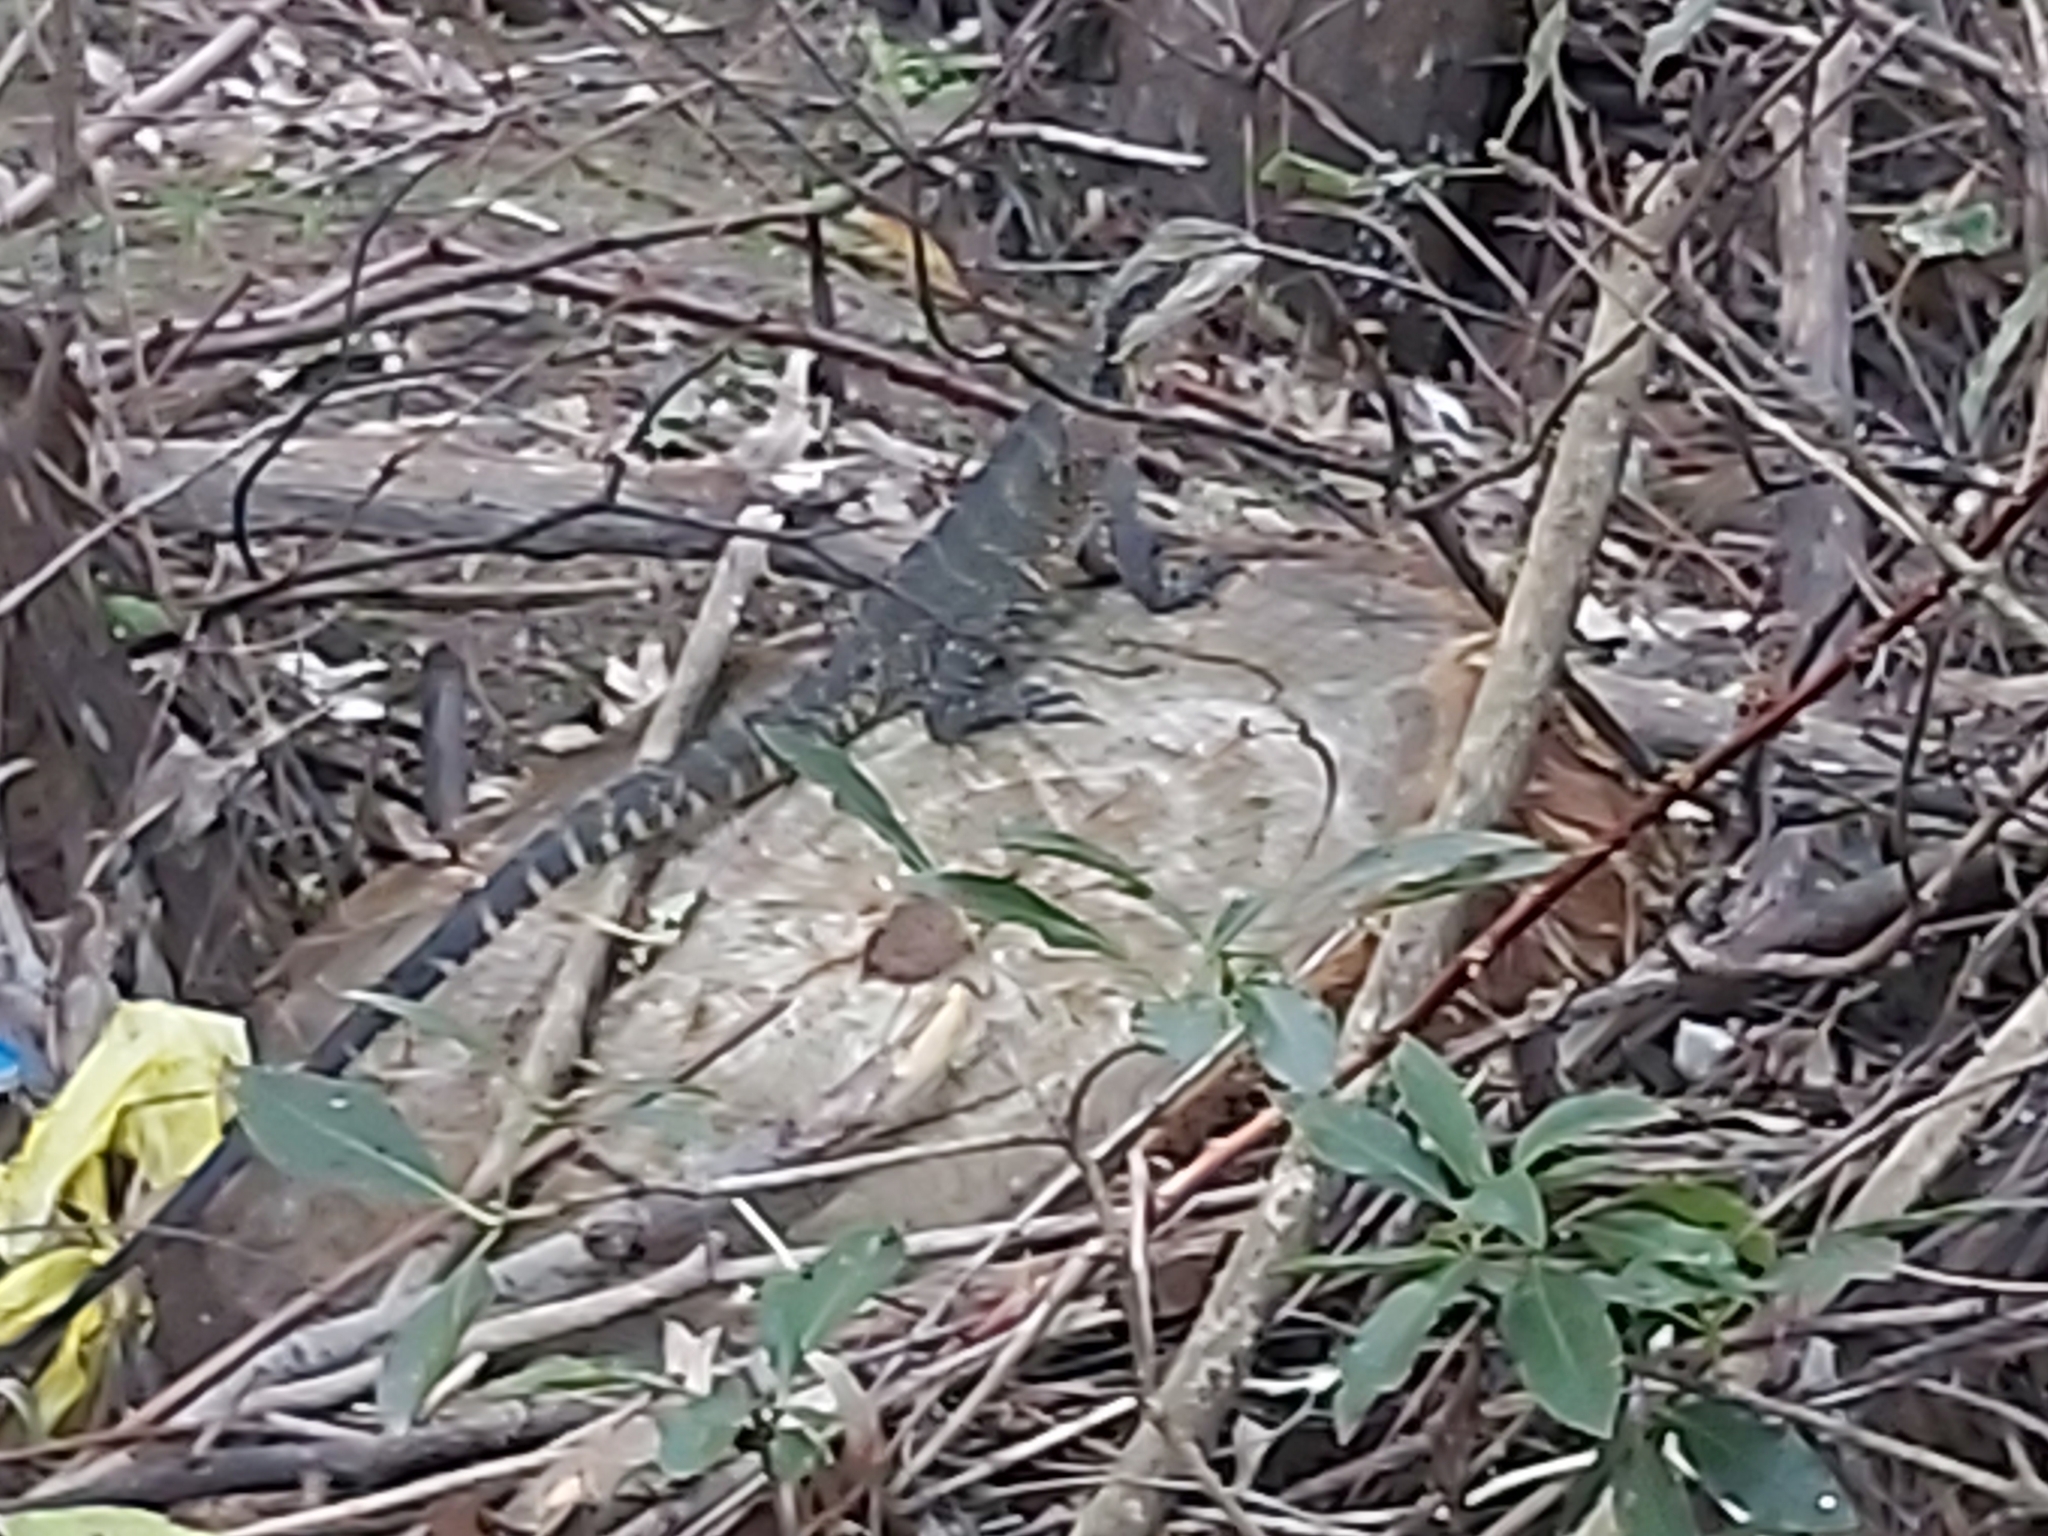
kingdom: Animalia
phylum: Chordata
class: Squamata
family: Agamidae
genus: Intellagama
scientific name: Intellagama lesueurii
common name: Eastern water dragon
